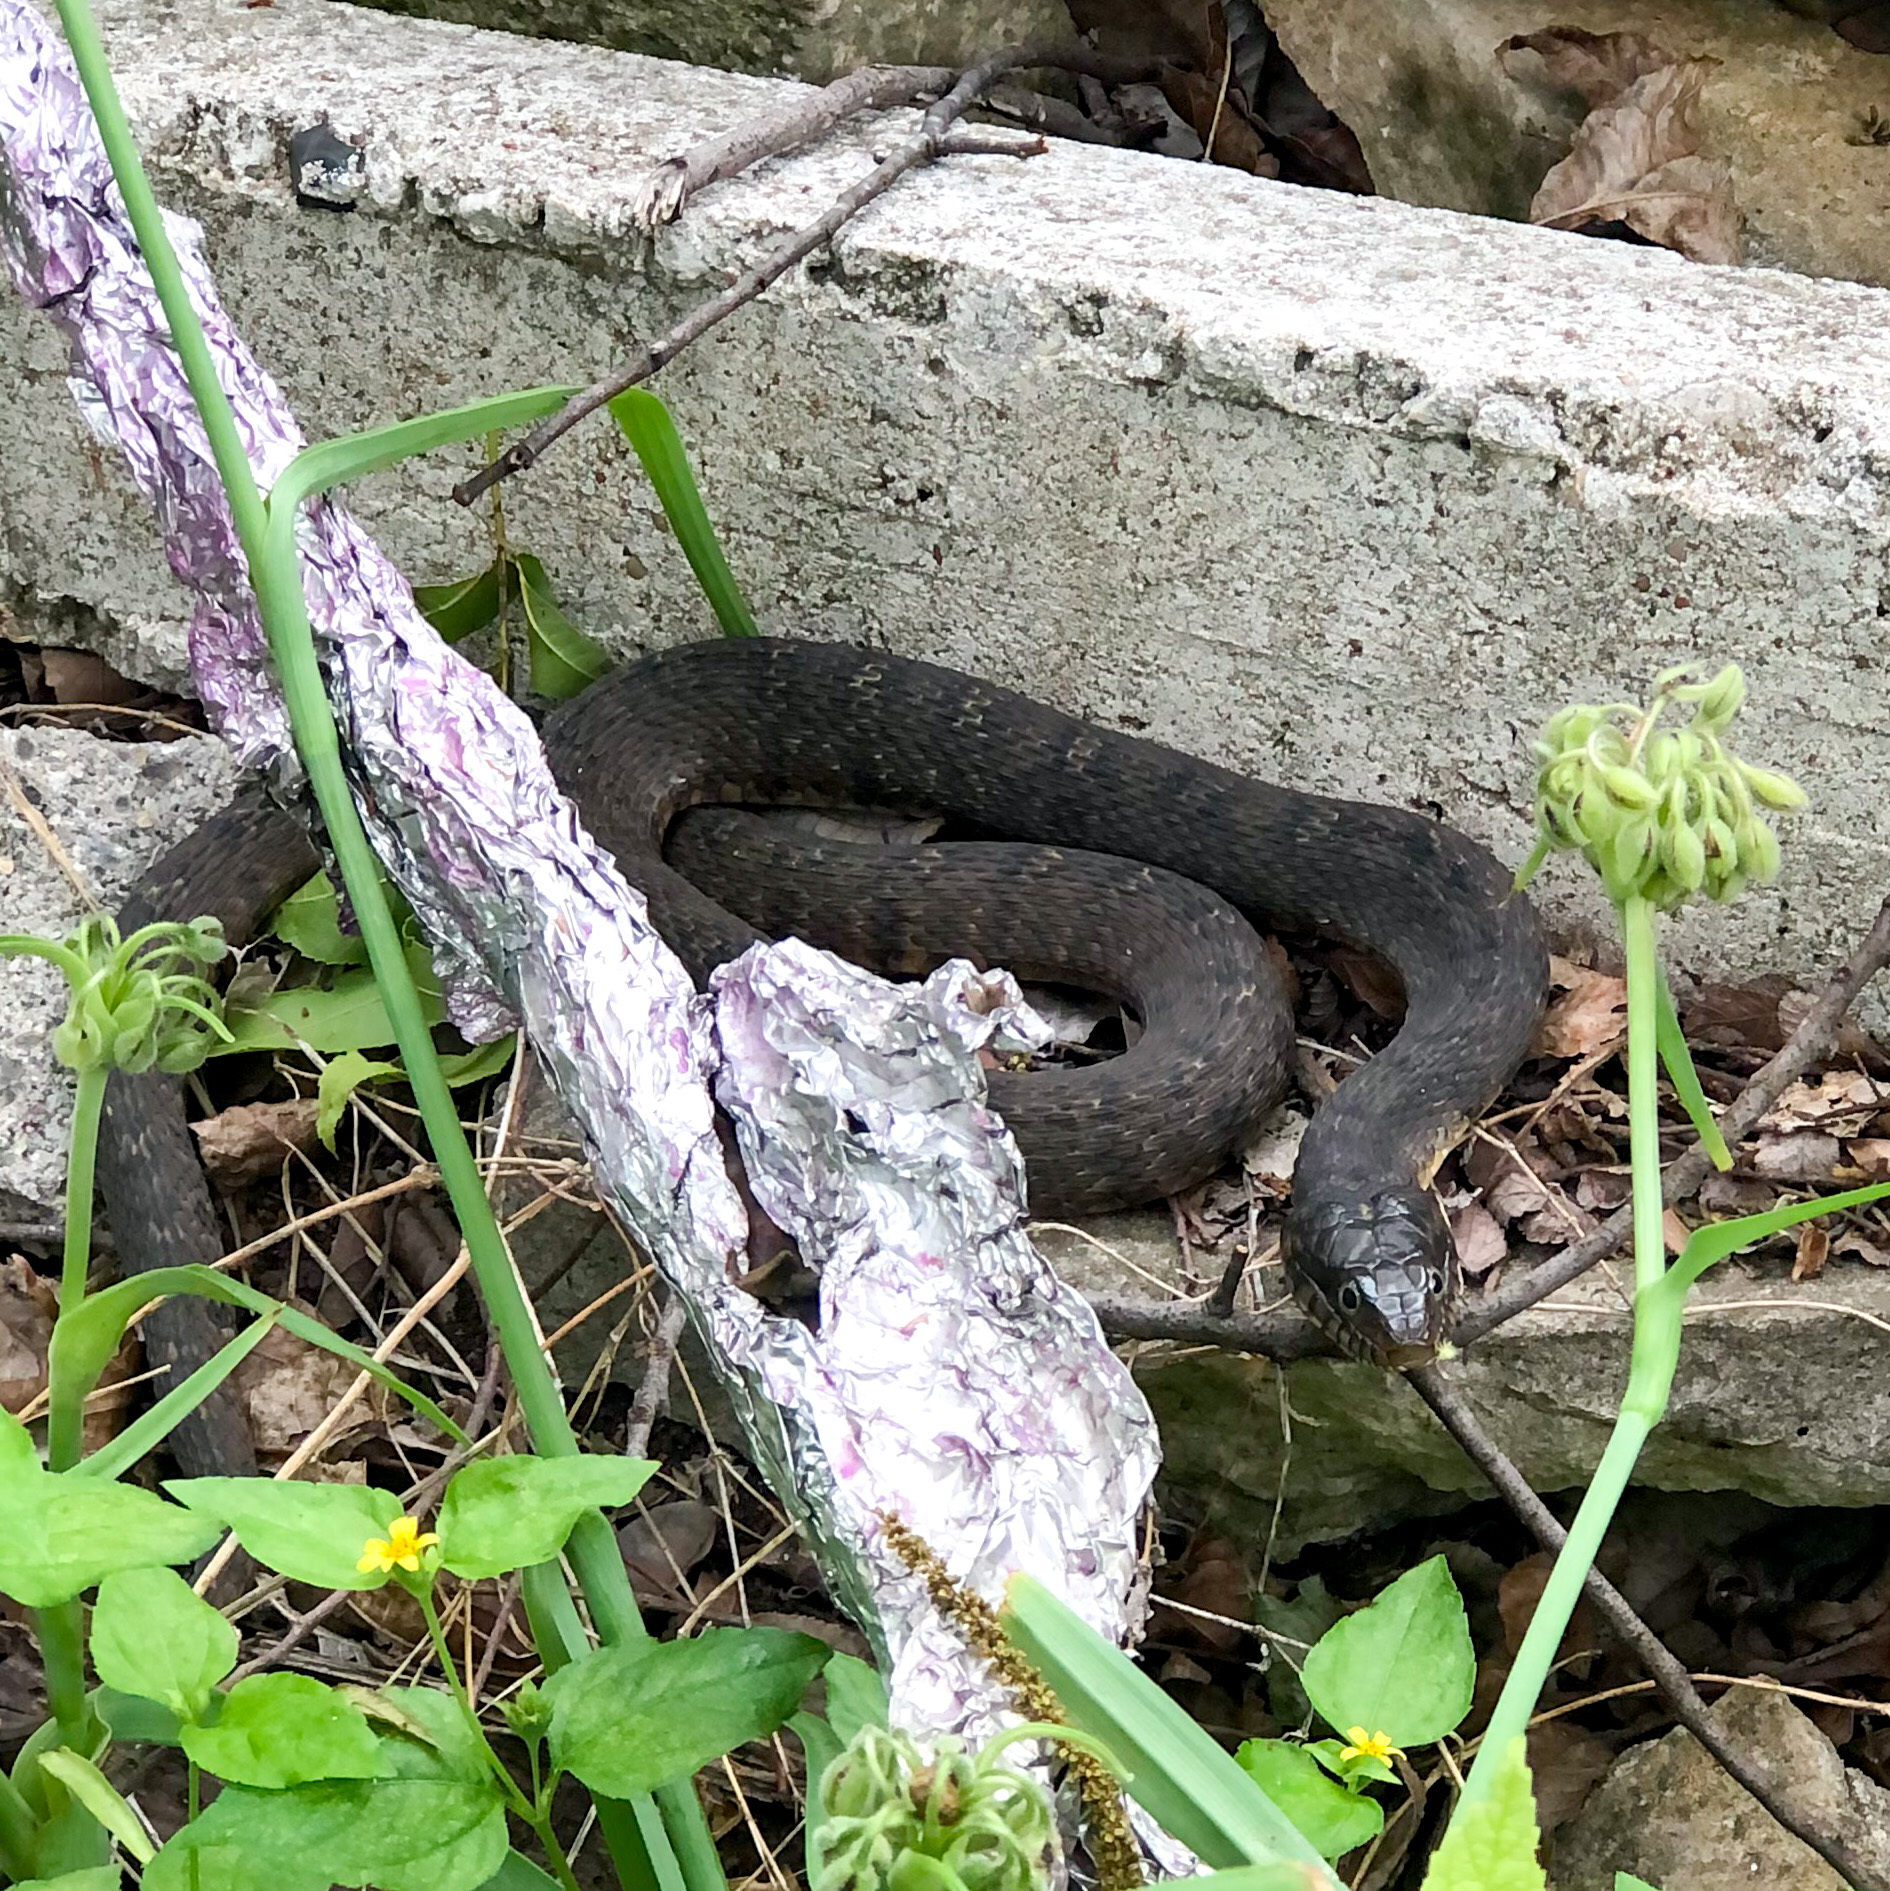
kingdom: Animalia
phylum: Chordata
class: Squamata
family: Colubridae
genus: Nerodia
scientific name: Nerodia erythrogaster
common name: Plainbelly water snake
